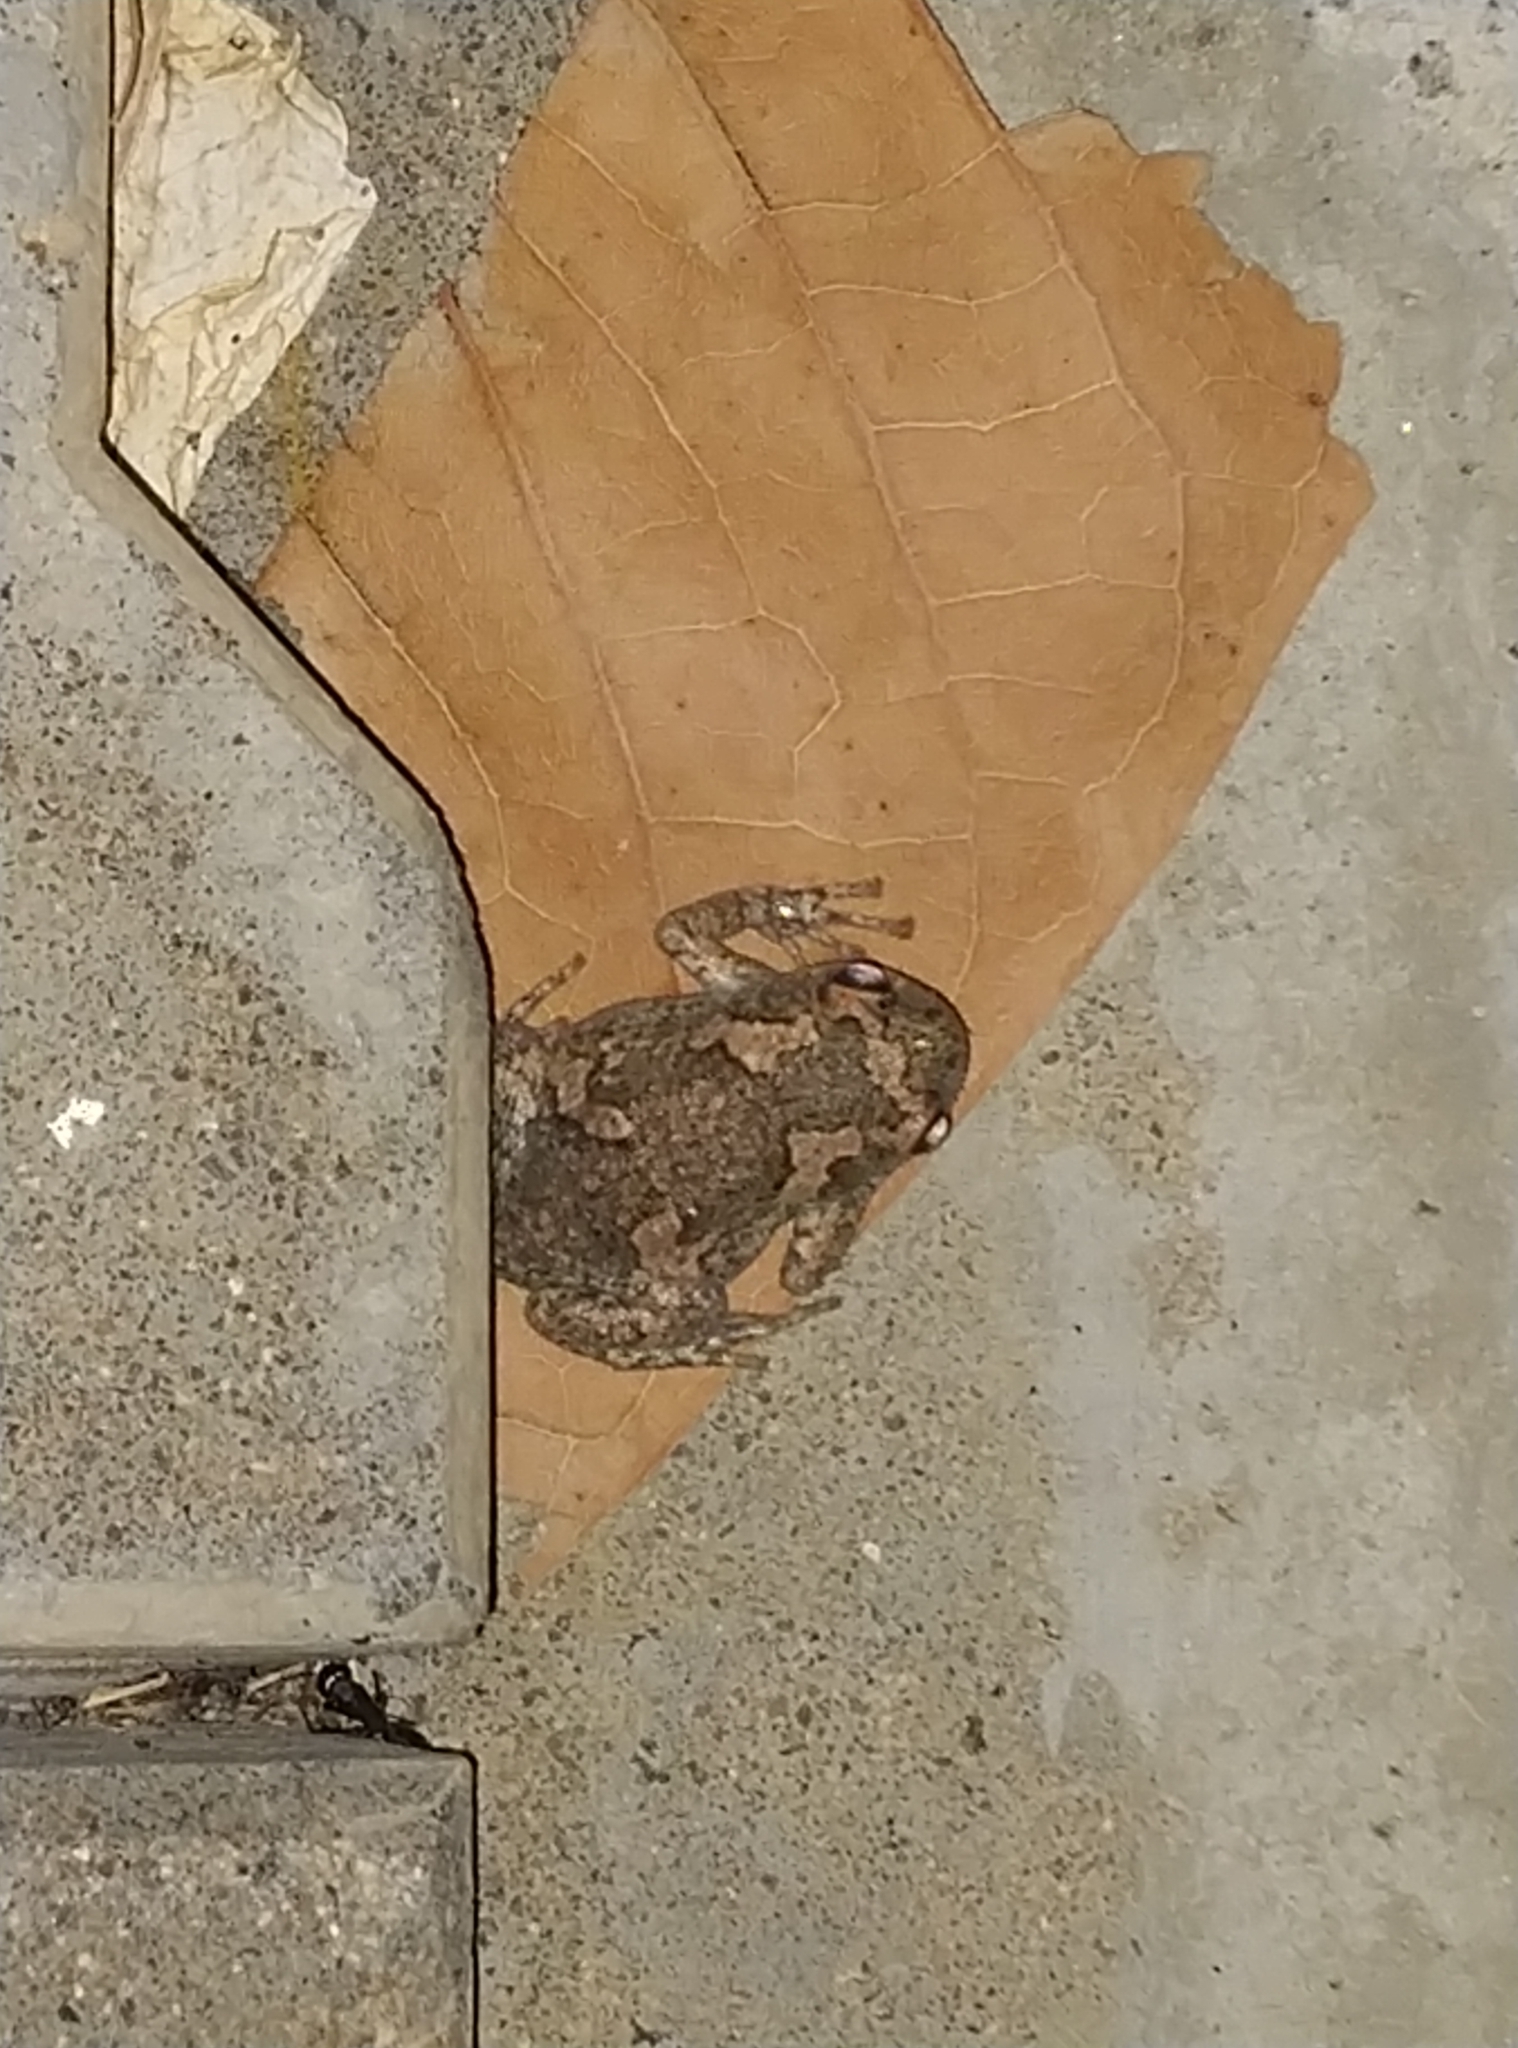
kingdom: Animalia
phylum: Chordata
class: Amphibia
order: Anura
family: Microhylidae
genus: Uperodon
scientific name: Uperodon taprobanicus
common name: Ceylon kaloula
